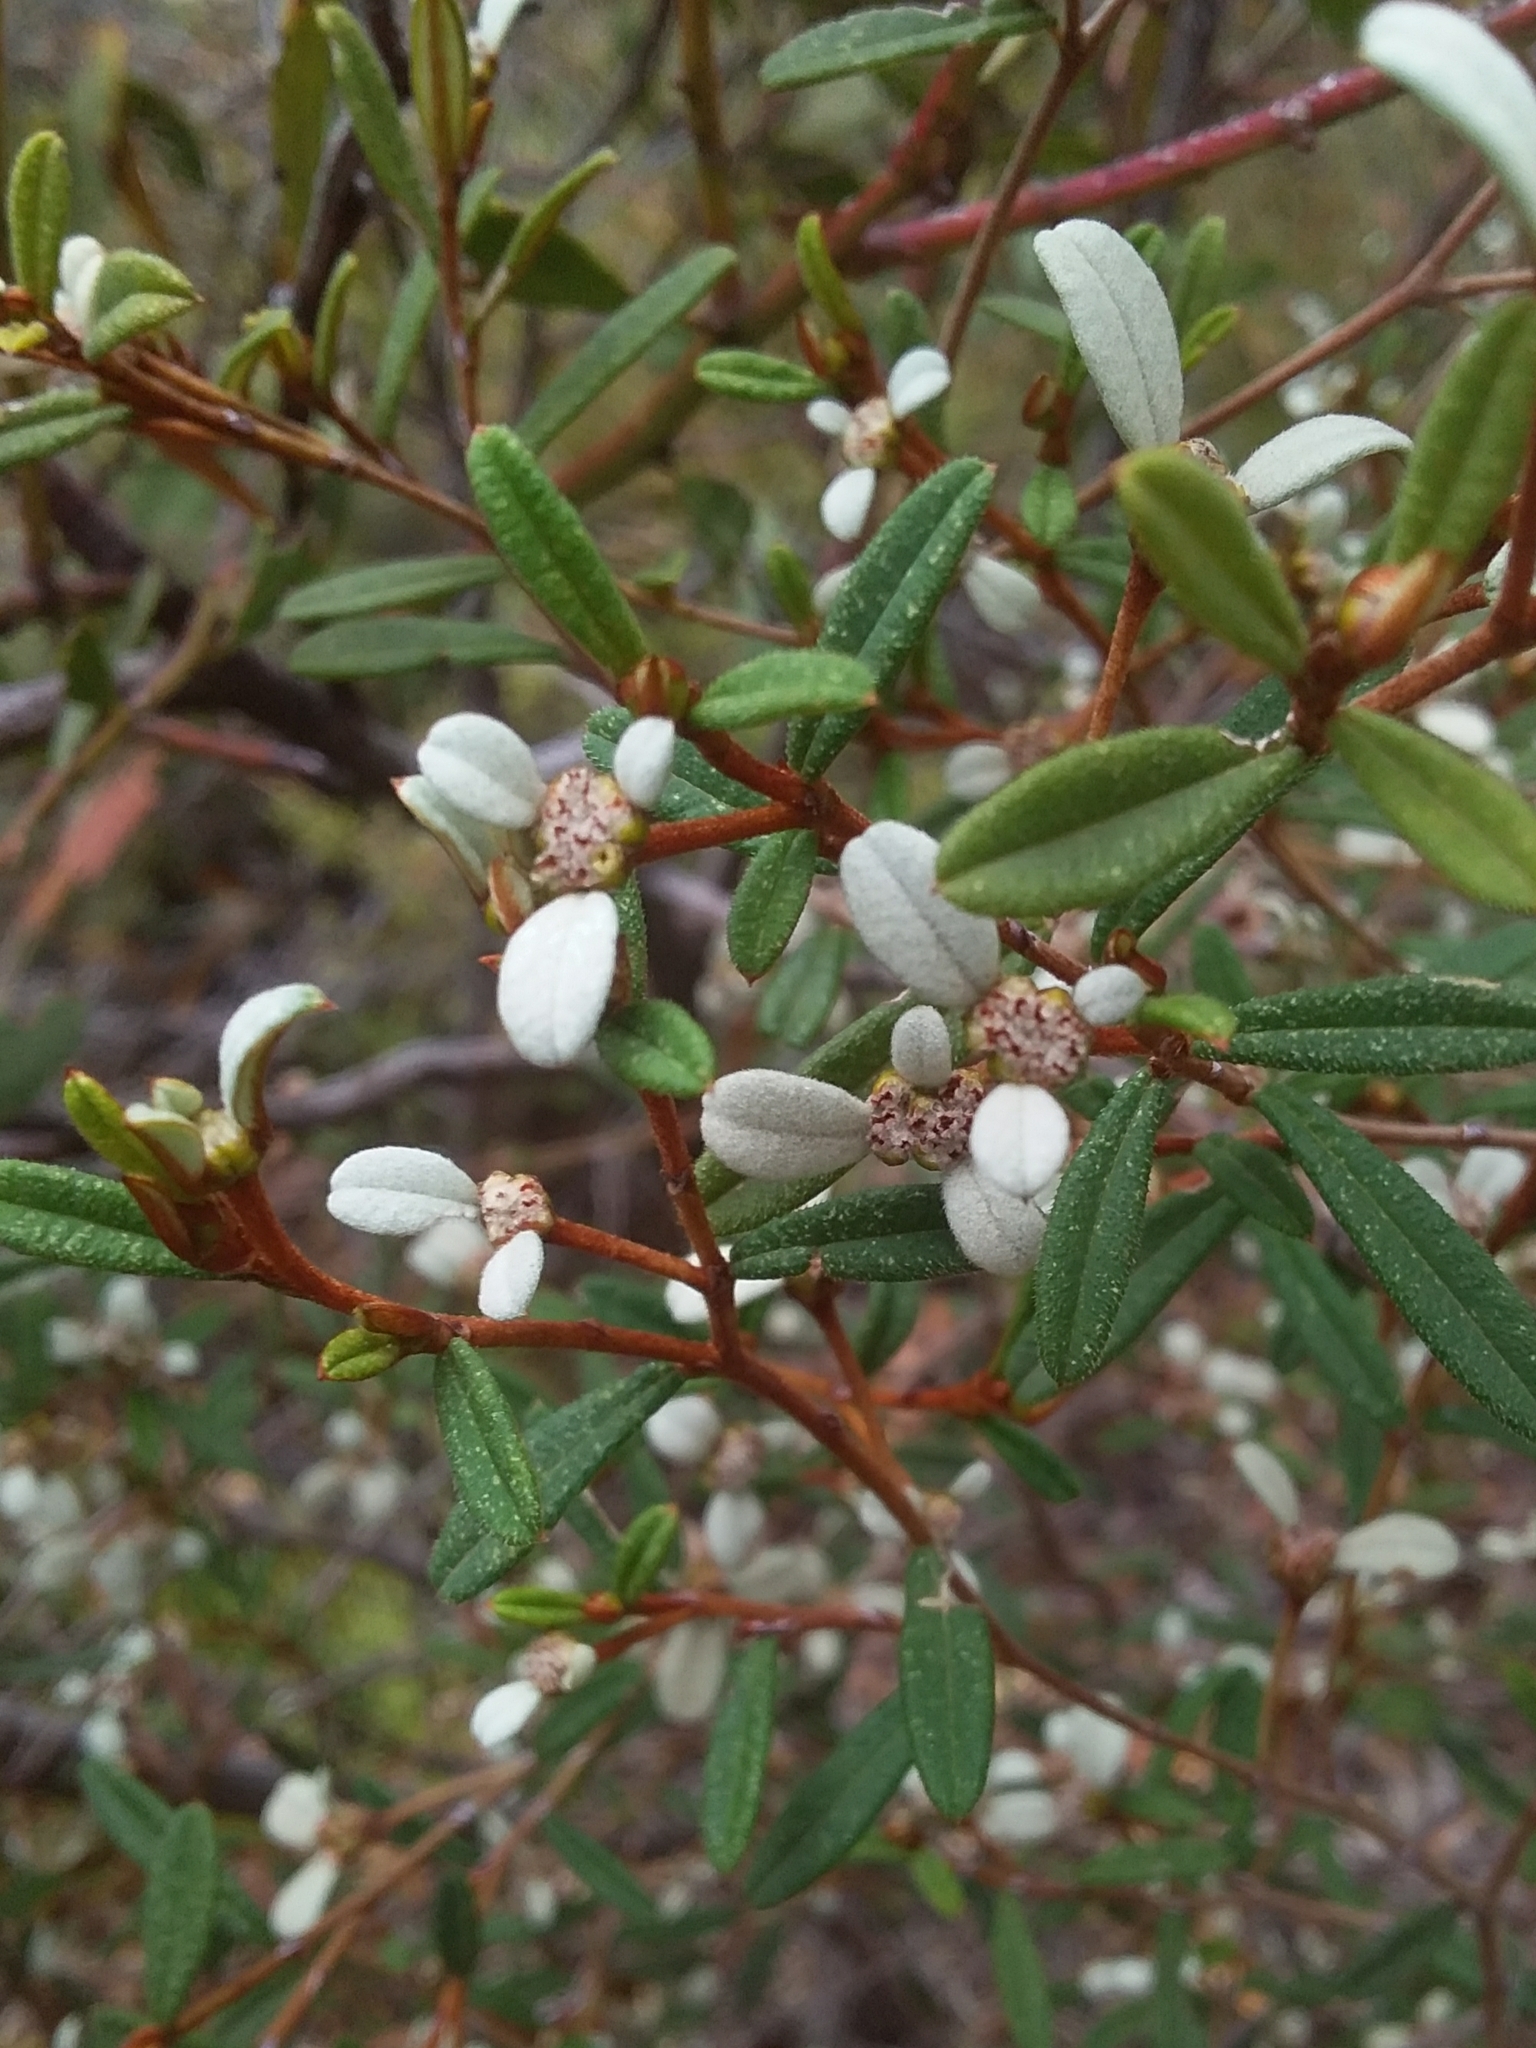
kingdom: Plantae
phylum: Tracheophyta
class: Magnoliopsida
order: Rosales
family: Rhamnaceae
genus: Spyridium
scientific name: Spyridium vexilliferum
